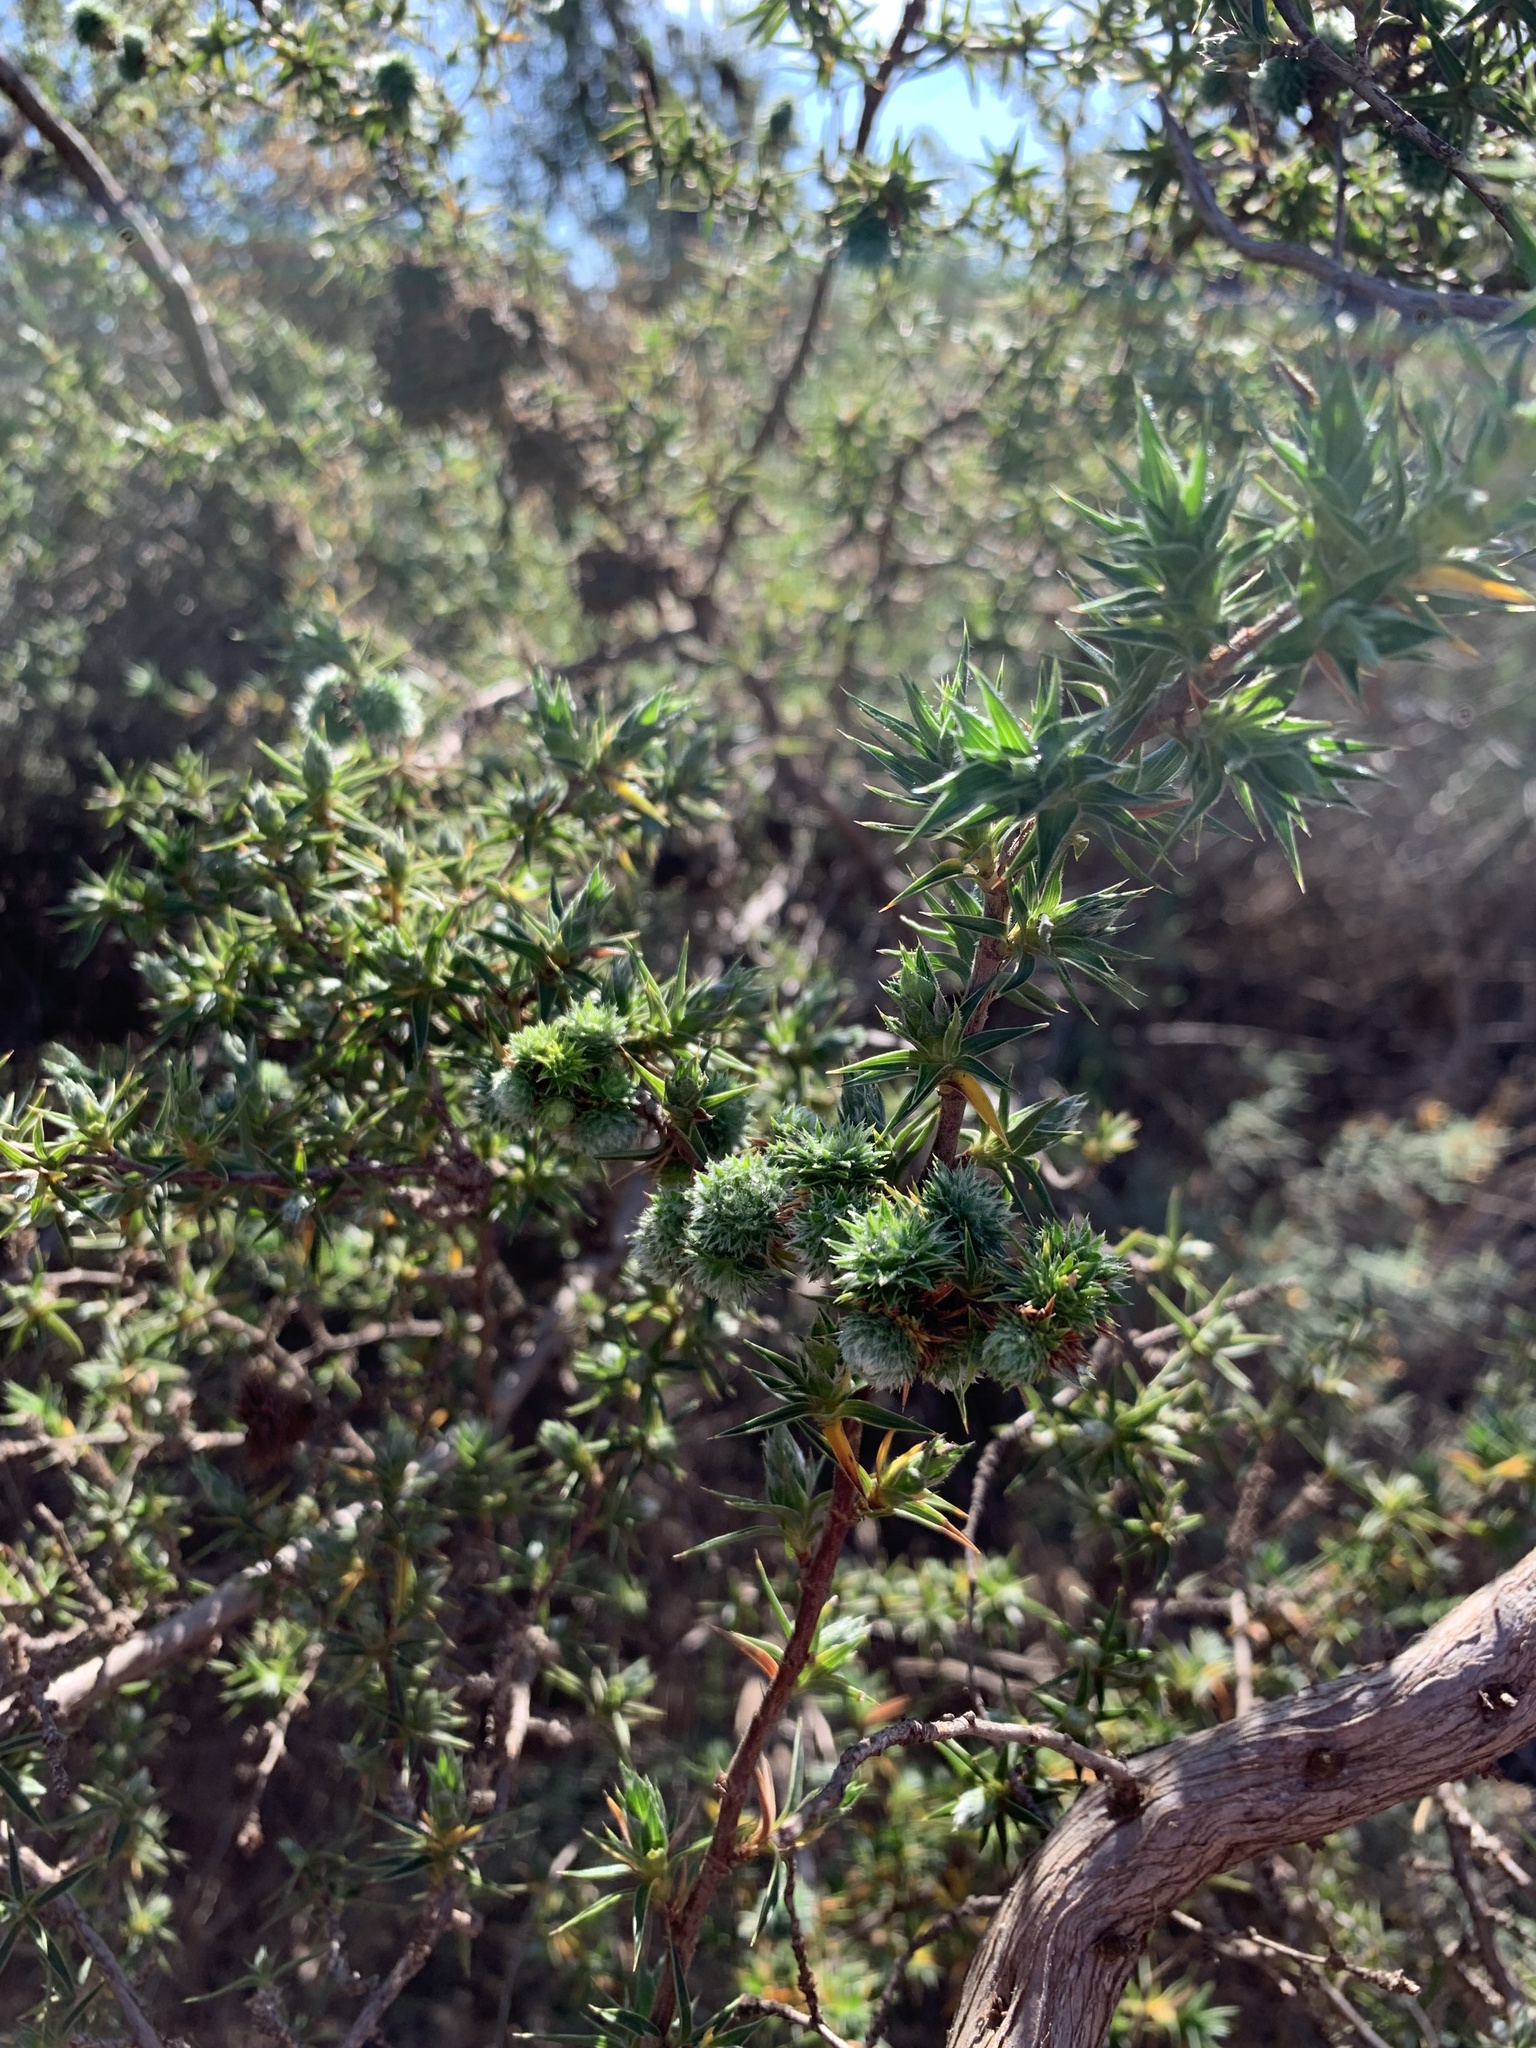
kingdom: Plantae
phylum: Tracheophyta
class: Magnoliopsida
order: Rosales
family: Rosaceae
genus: Cliffortia
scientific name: Cliffortia ruscifolia
